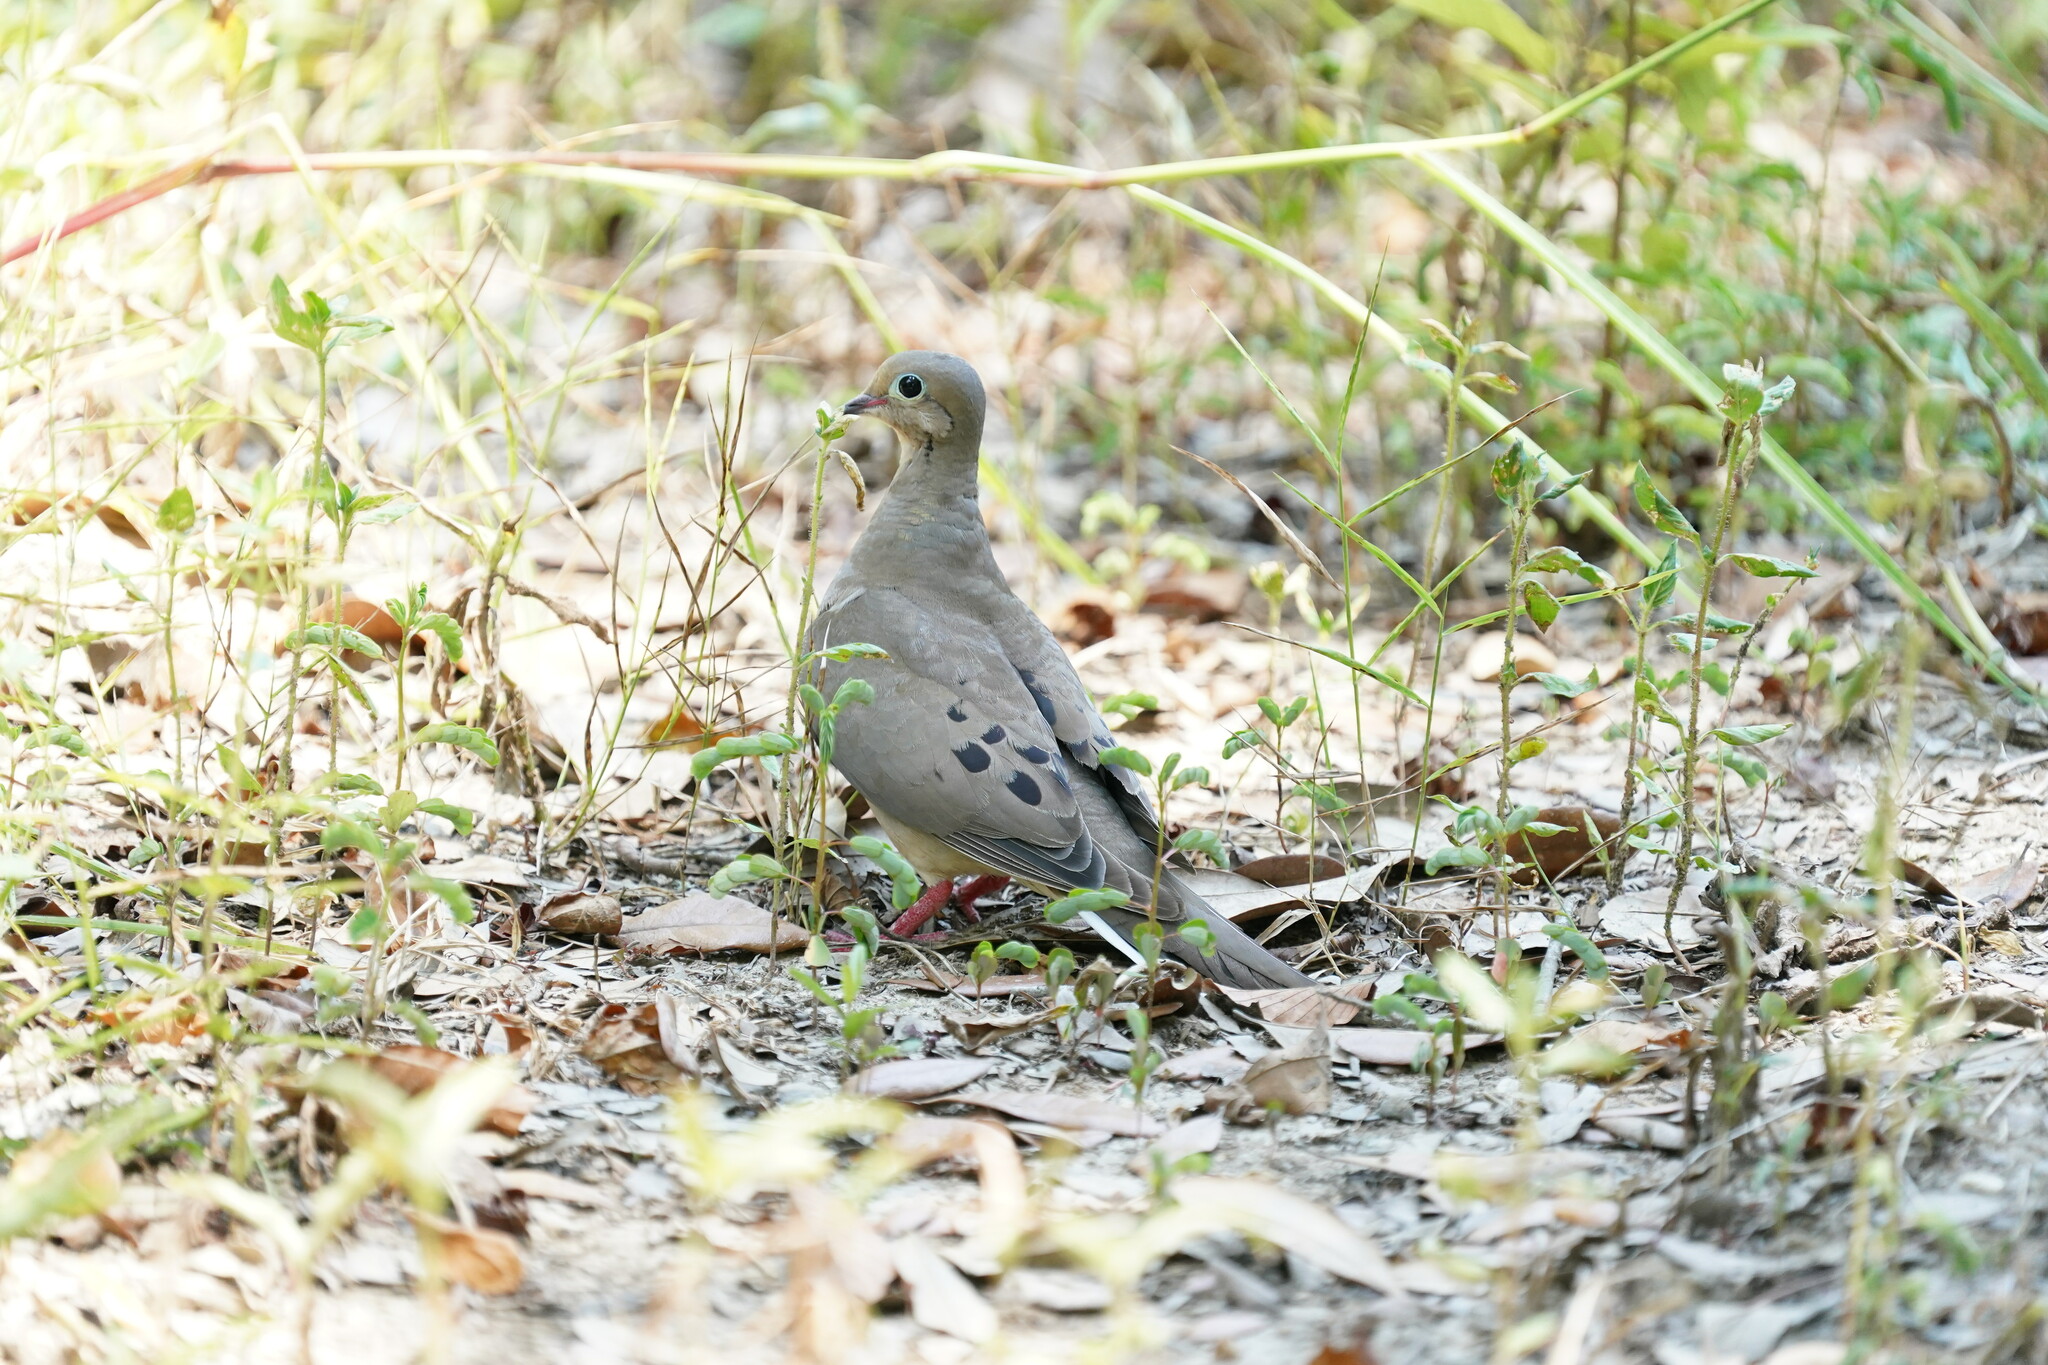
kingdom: Animalia
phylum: Chordata
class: Aves
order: Columbiformes
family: Columbidae
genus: Zenaida
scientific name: Zenaida macroura
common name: Mourning dove
